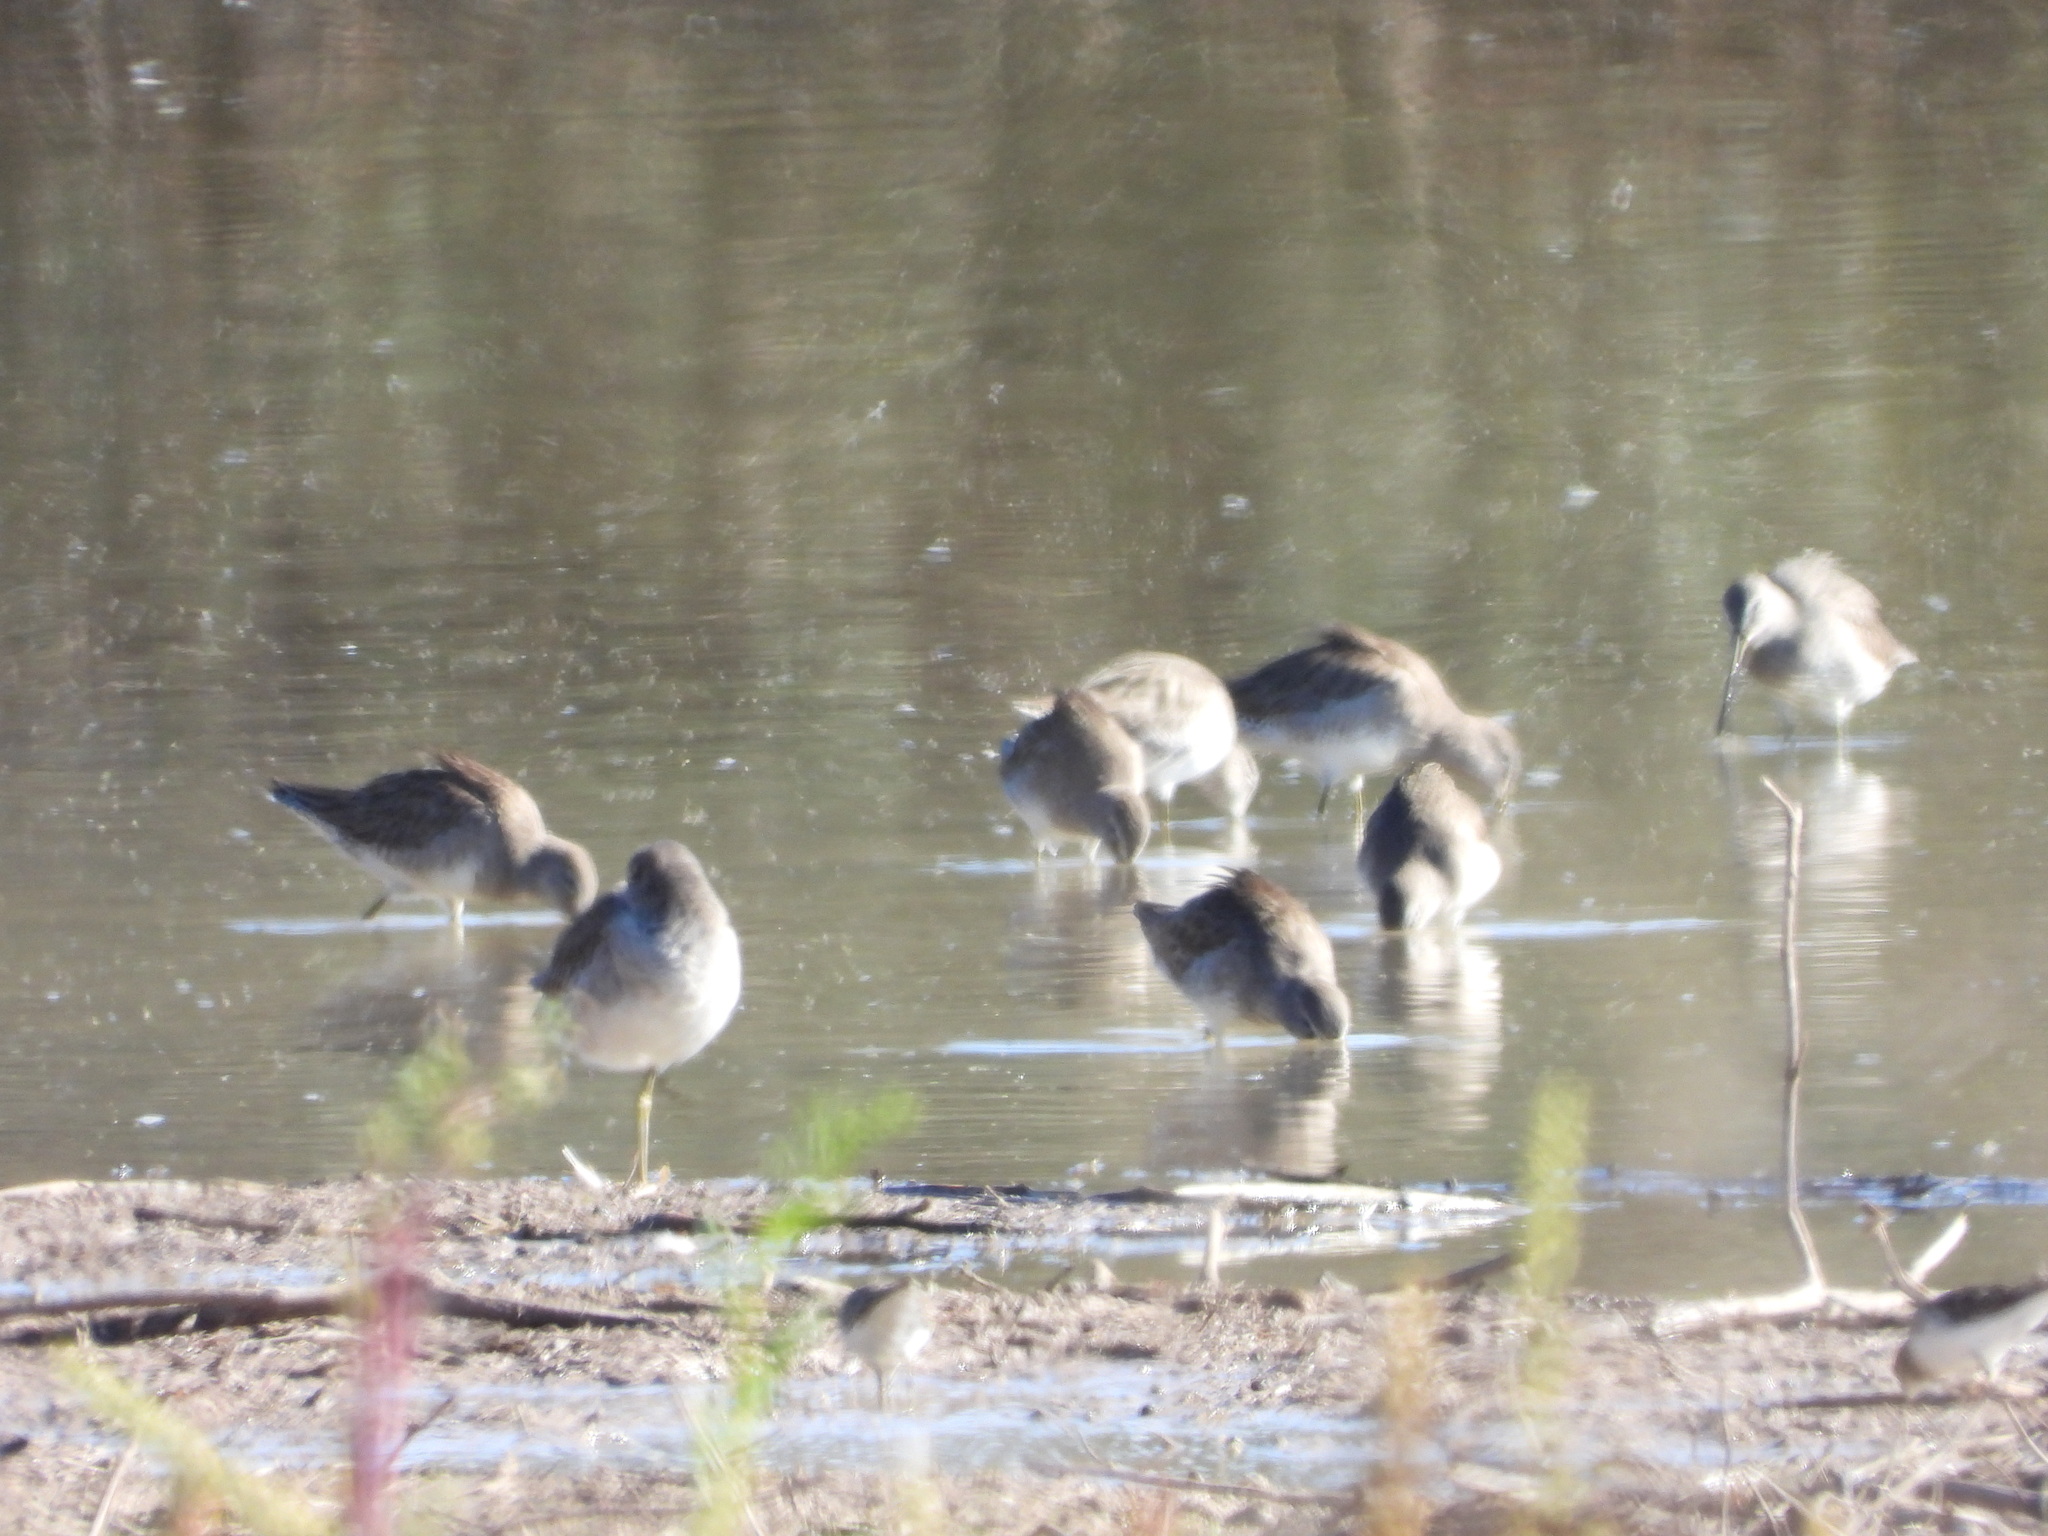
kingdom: Animalia
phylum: Chordata
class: Aves
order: Charadriiformes
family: Scolopacidae
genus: Limnodromus
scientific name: Limnodromus scolopaceus
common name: Long-billed dowitcher
